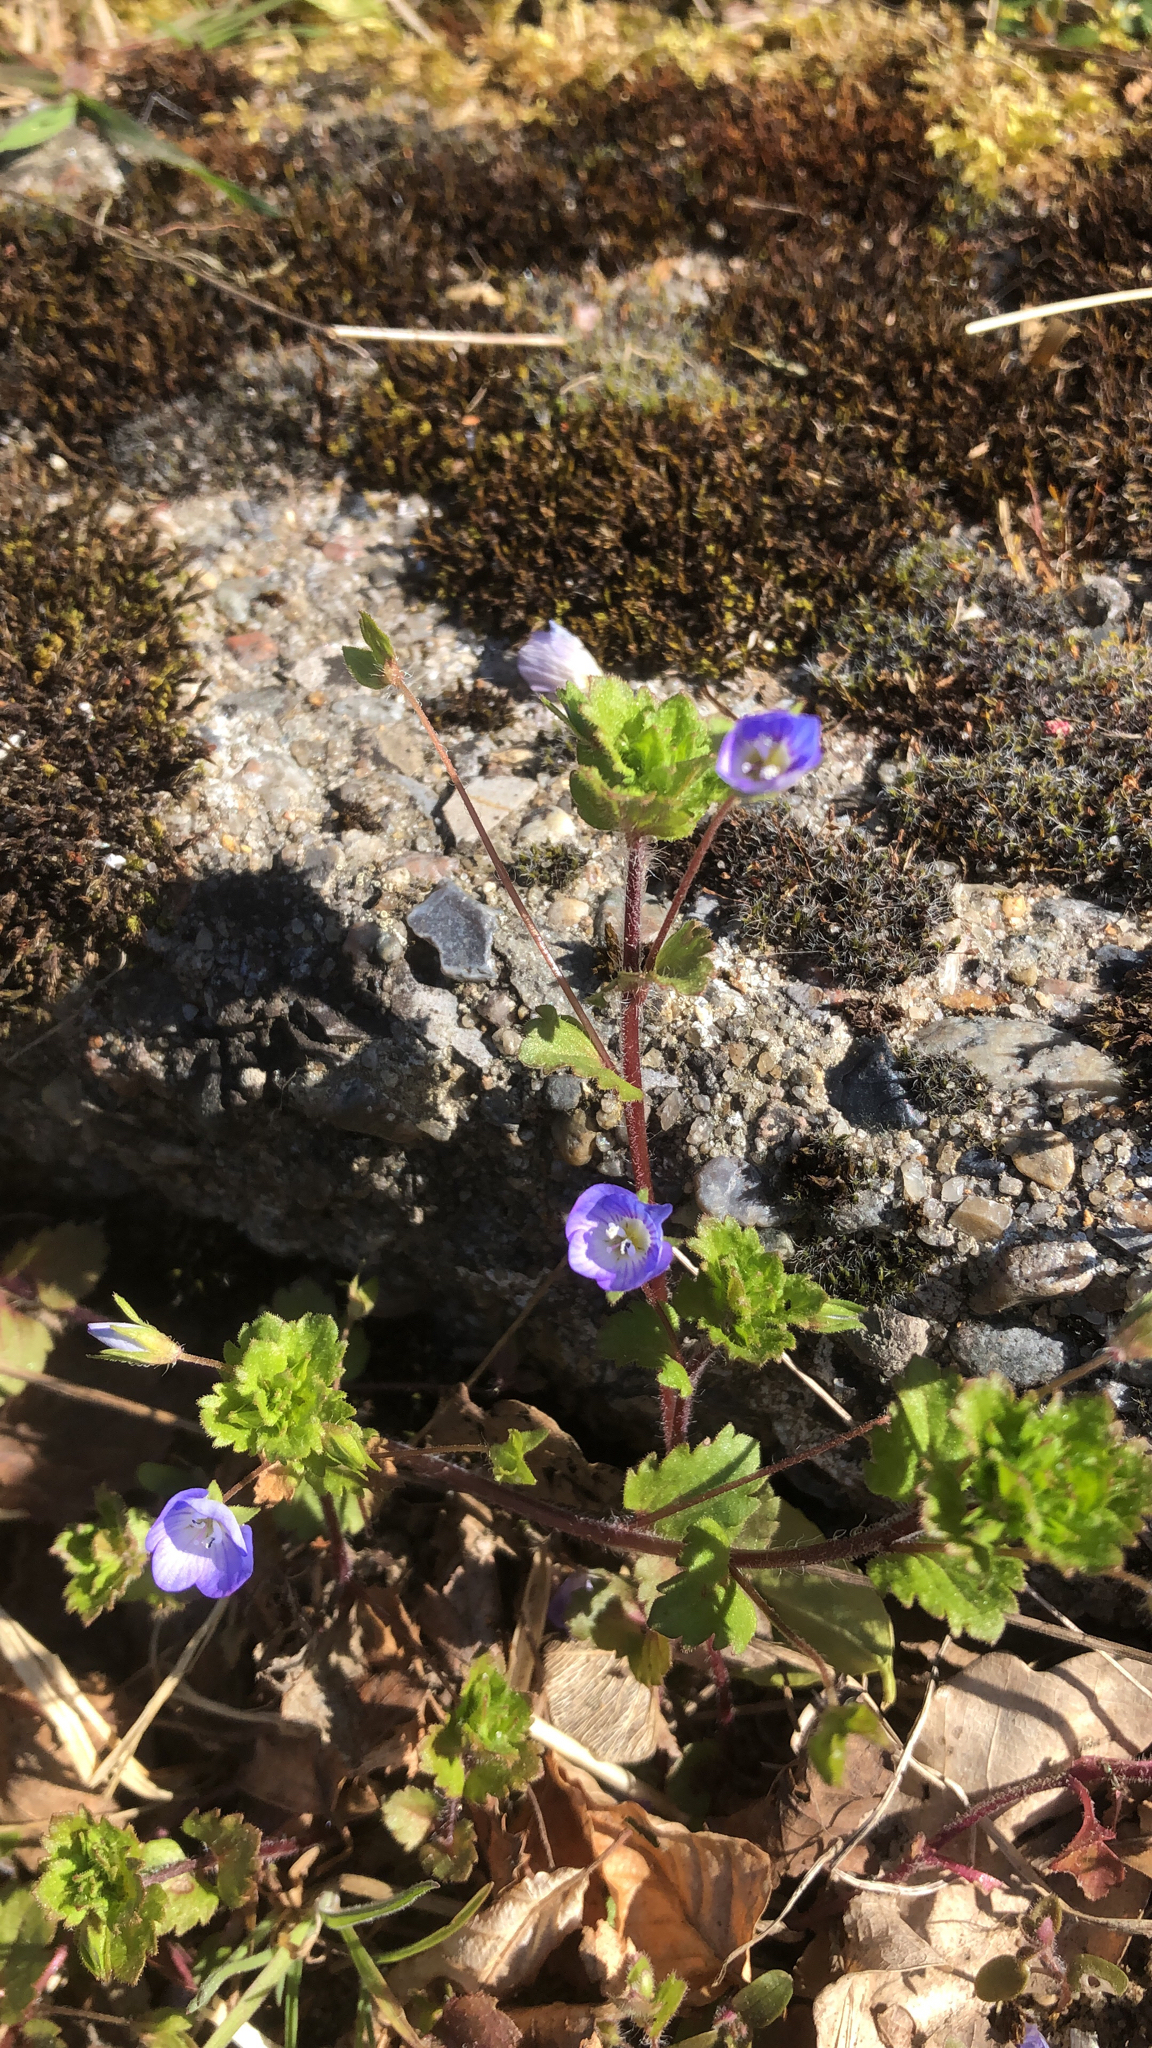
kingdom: Plantae
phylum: Tracheophyta
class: Magnoliopsida
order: Lamiales
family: Plantaginaceae
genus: Veronica
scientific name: Veronica persica
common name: Common field-speedwell
